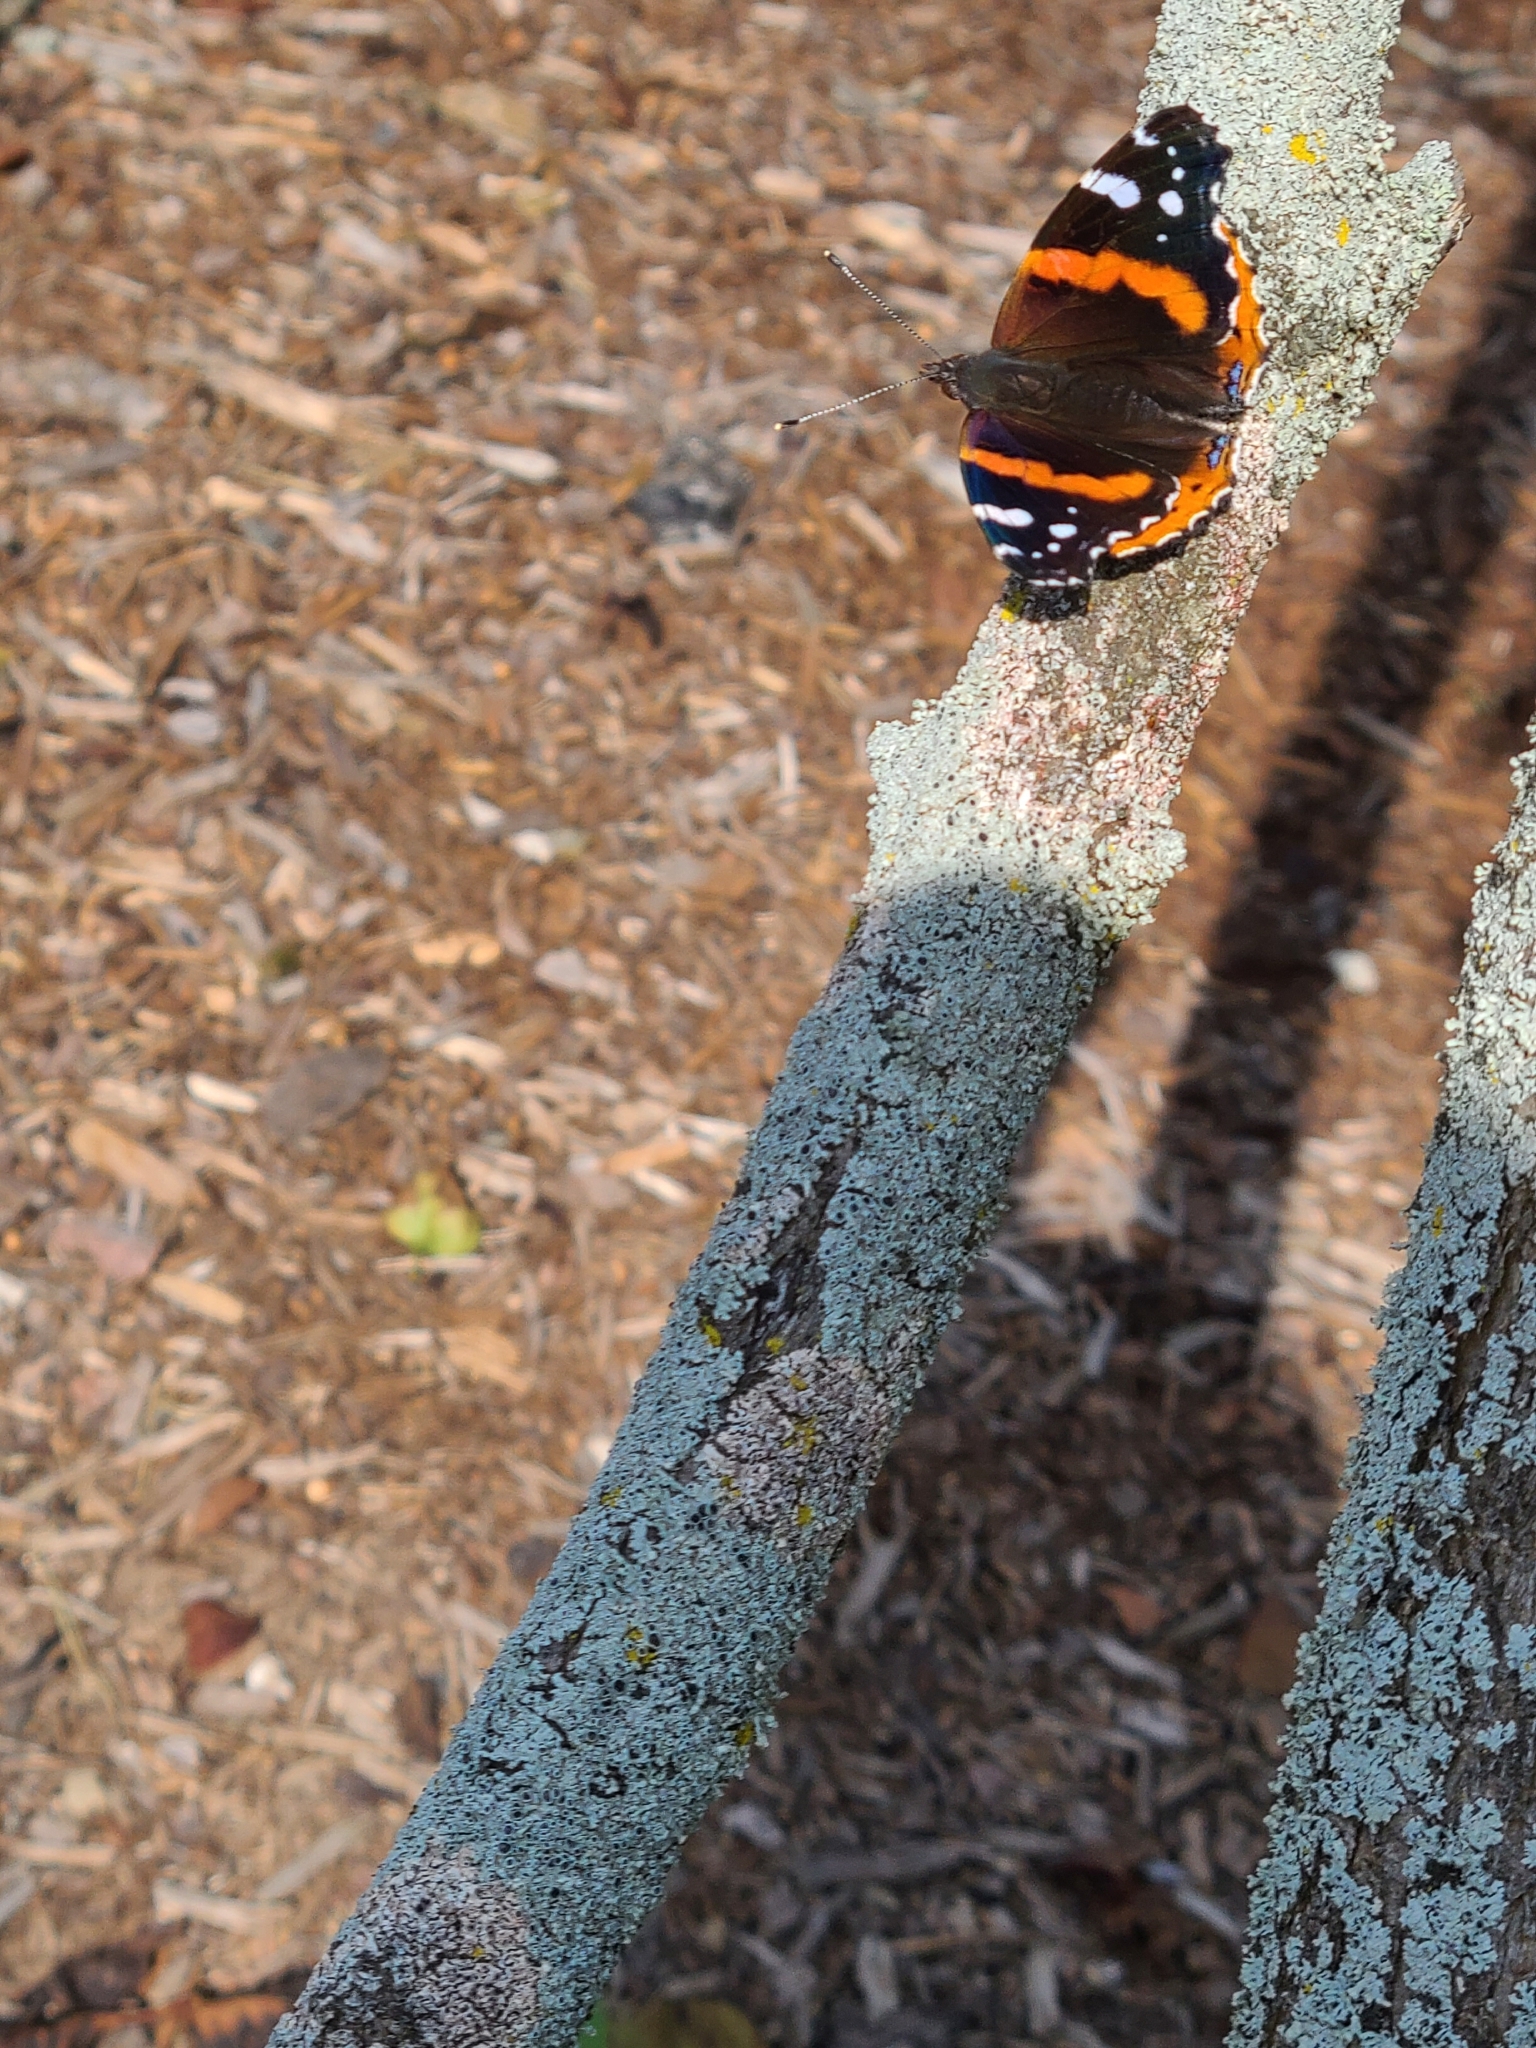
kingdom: Animalia
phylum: Arthropoda
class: Insecta
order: Lepidoptera
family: Nymphalidae
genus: Vanessa
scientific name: Vanessa atalanta
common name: Red admiral
